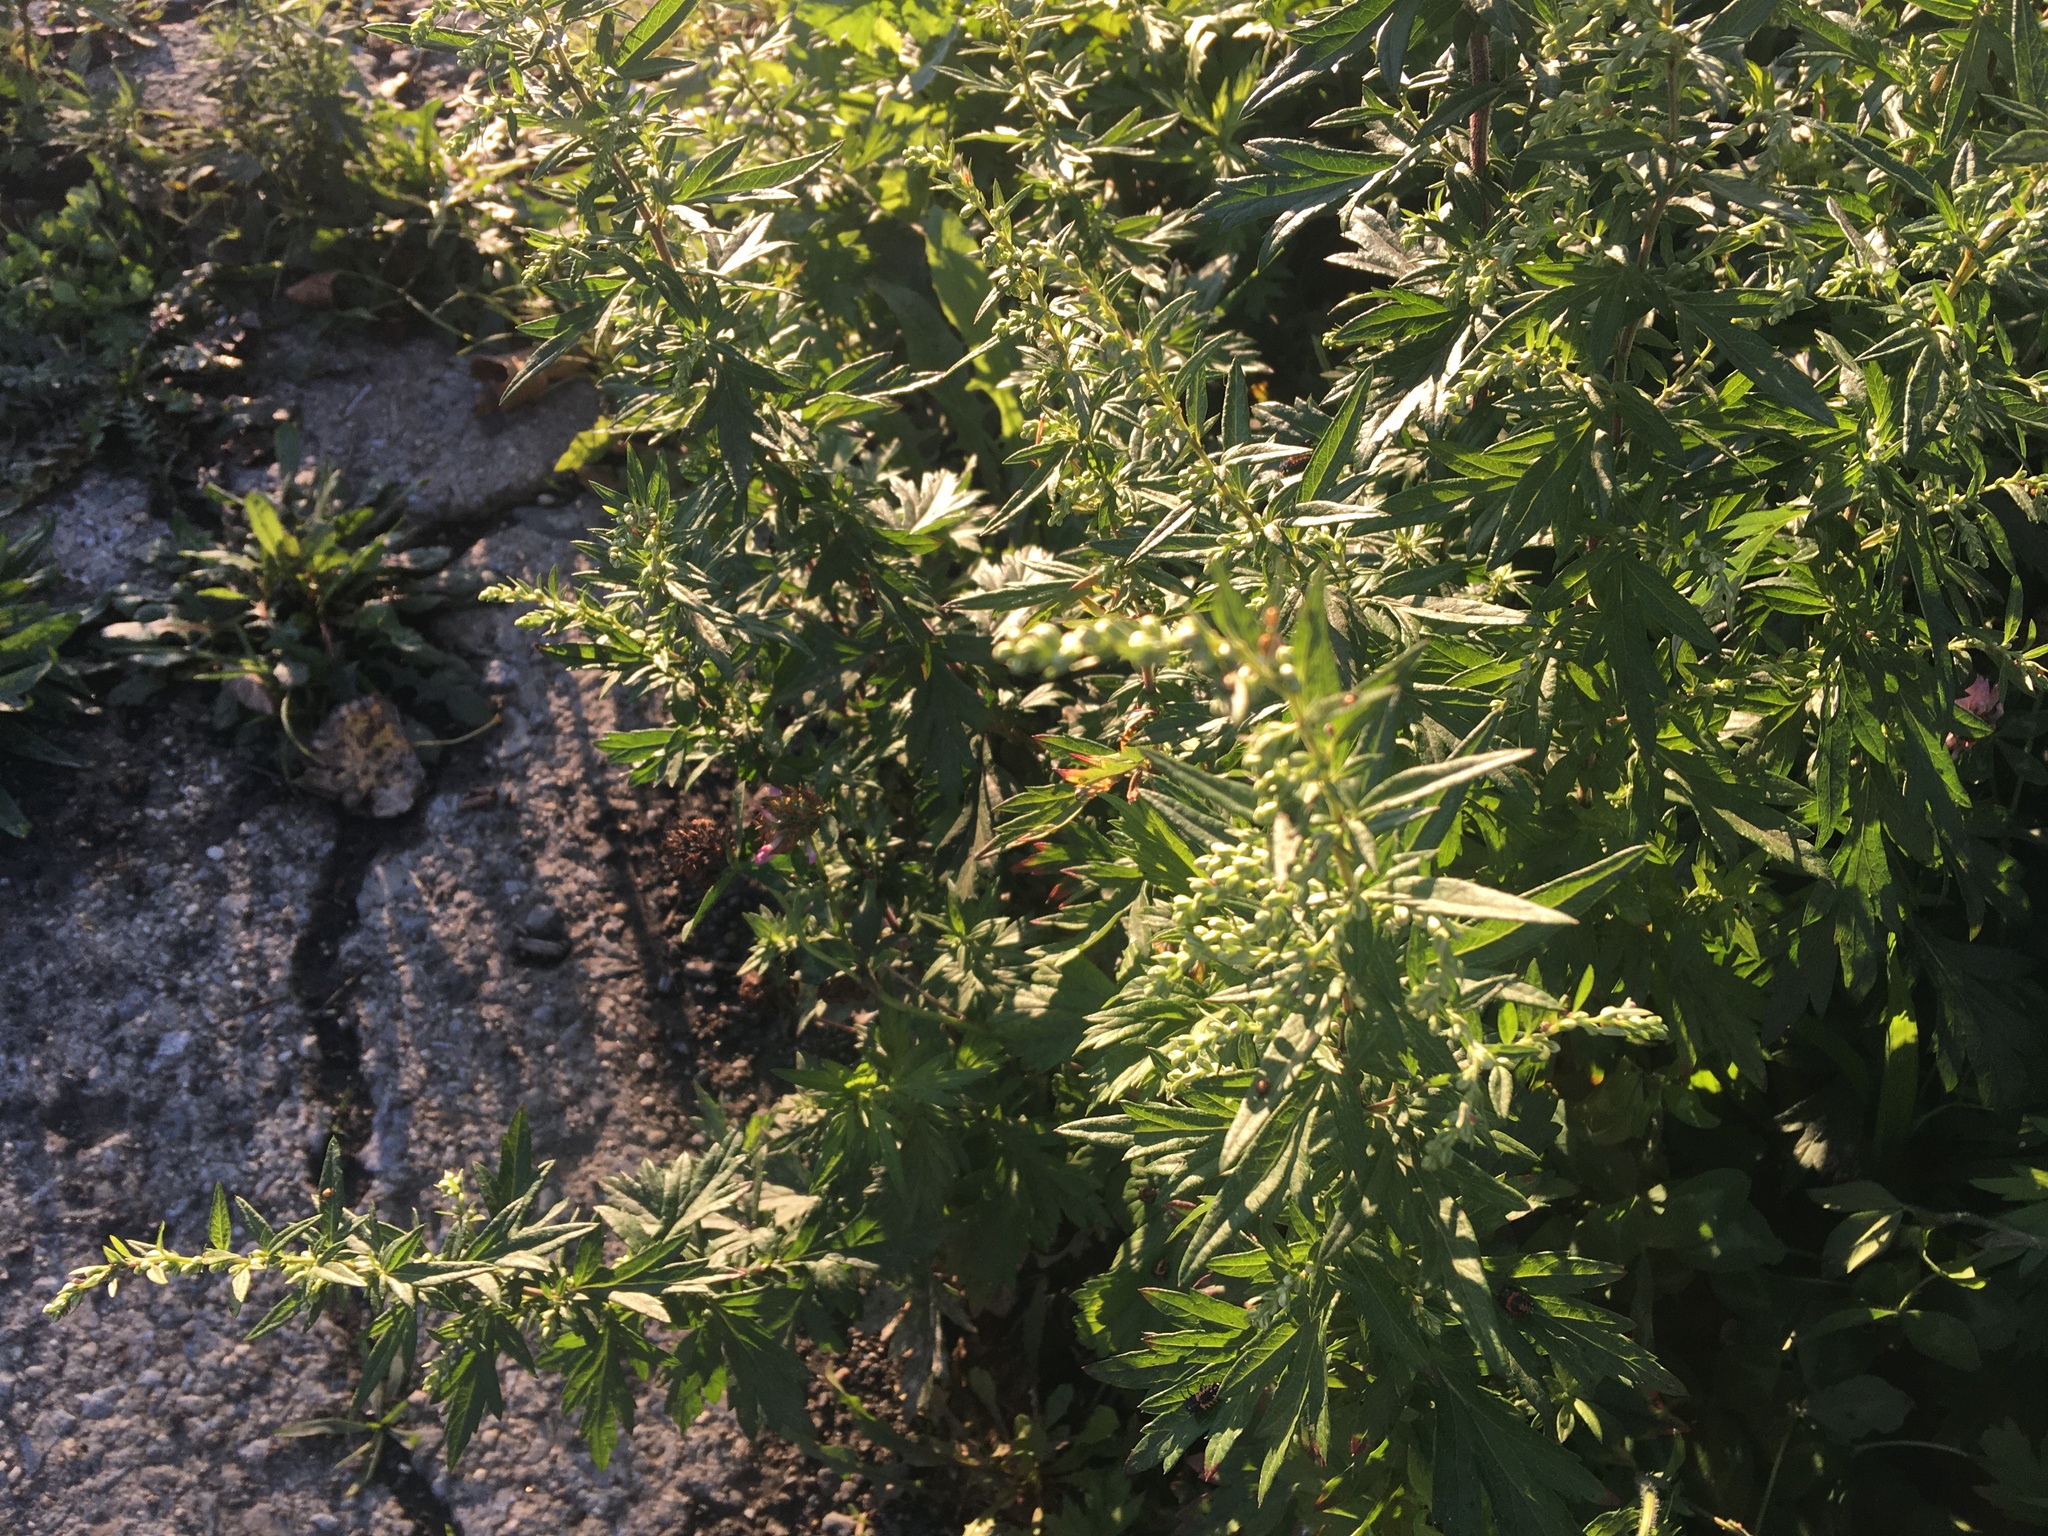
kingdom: Plantae
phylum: Tracheophyta
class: Magnoliopsida
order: Asterales
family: Asteraceae
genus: Artemisia
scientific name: Artemisia vulgaris
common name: Mugwort
